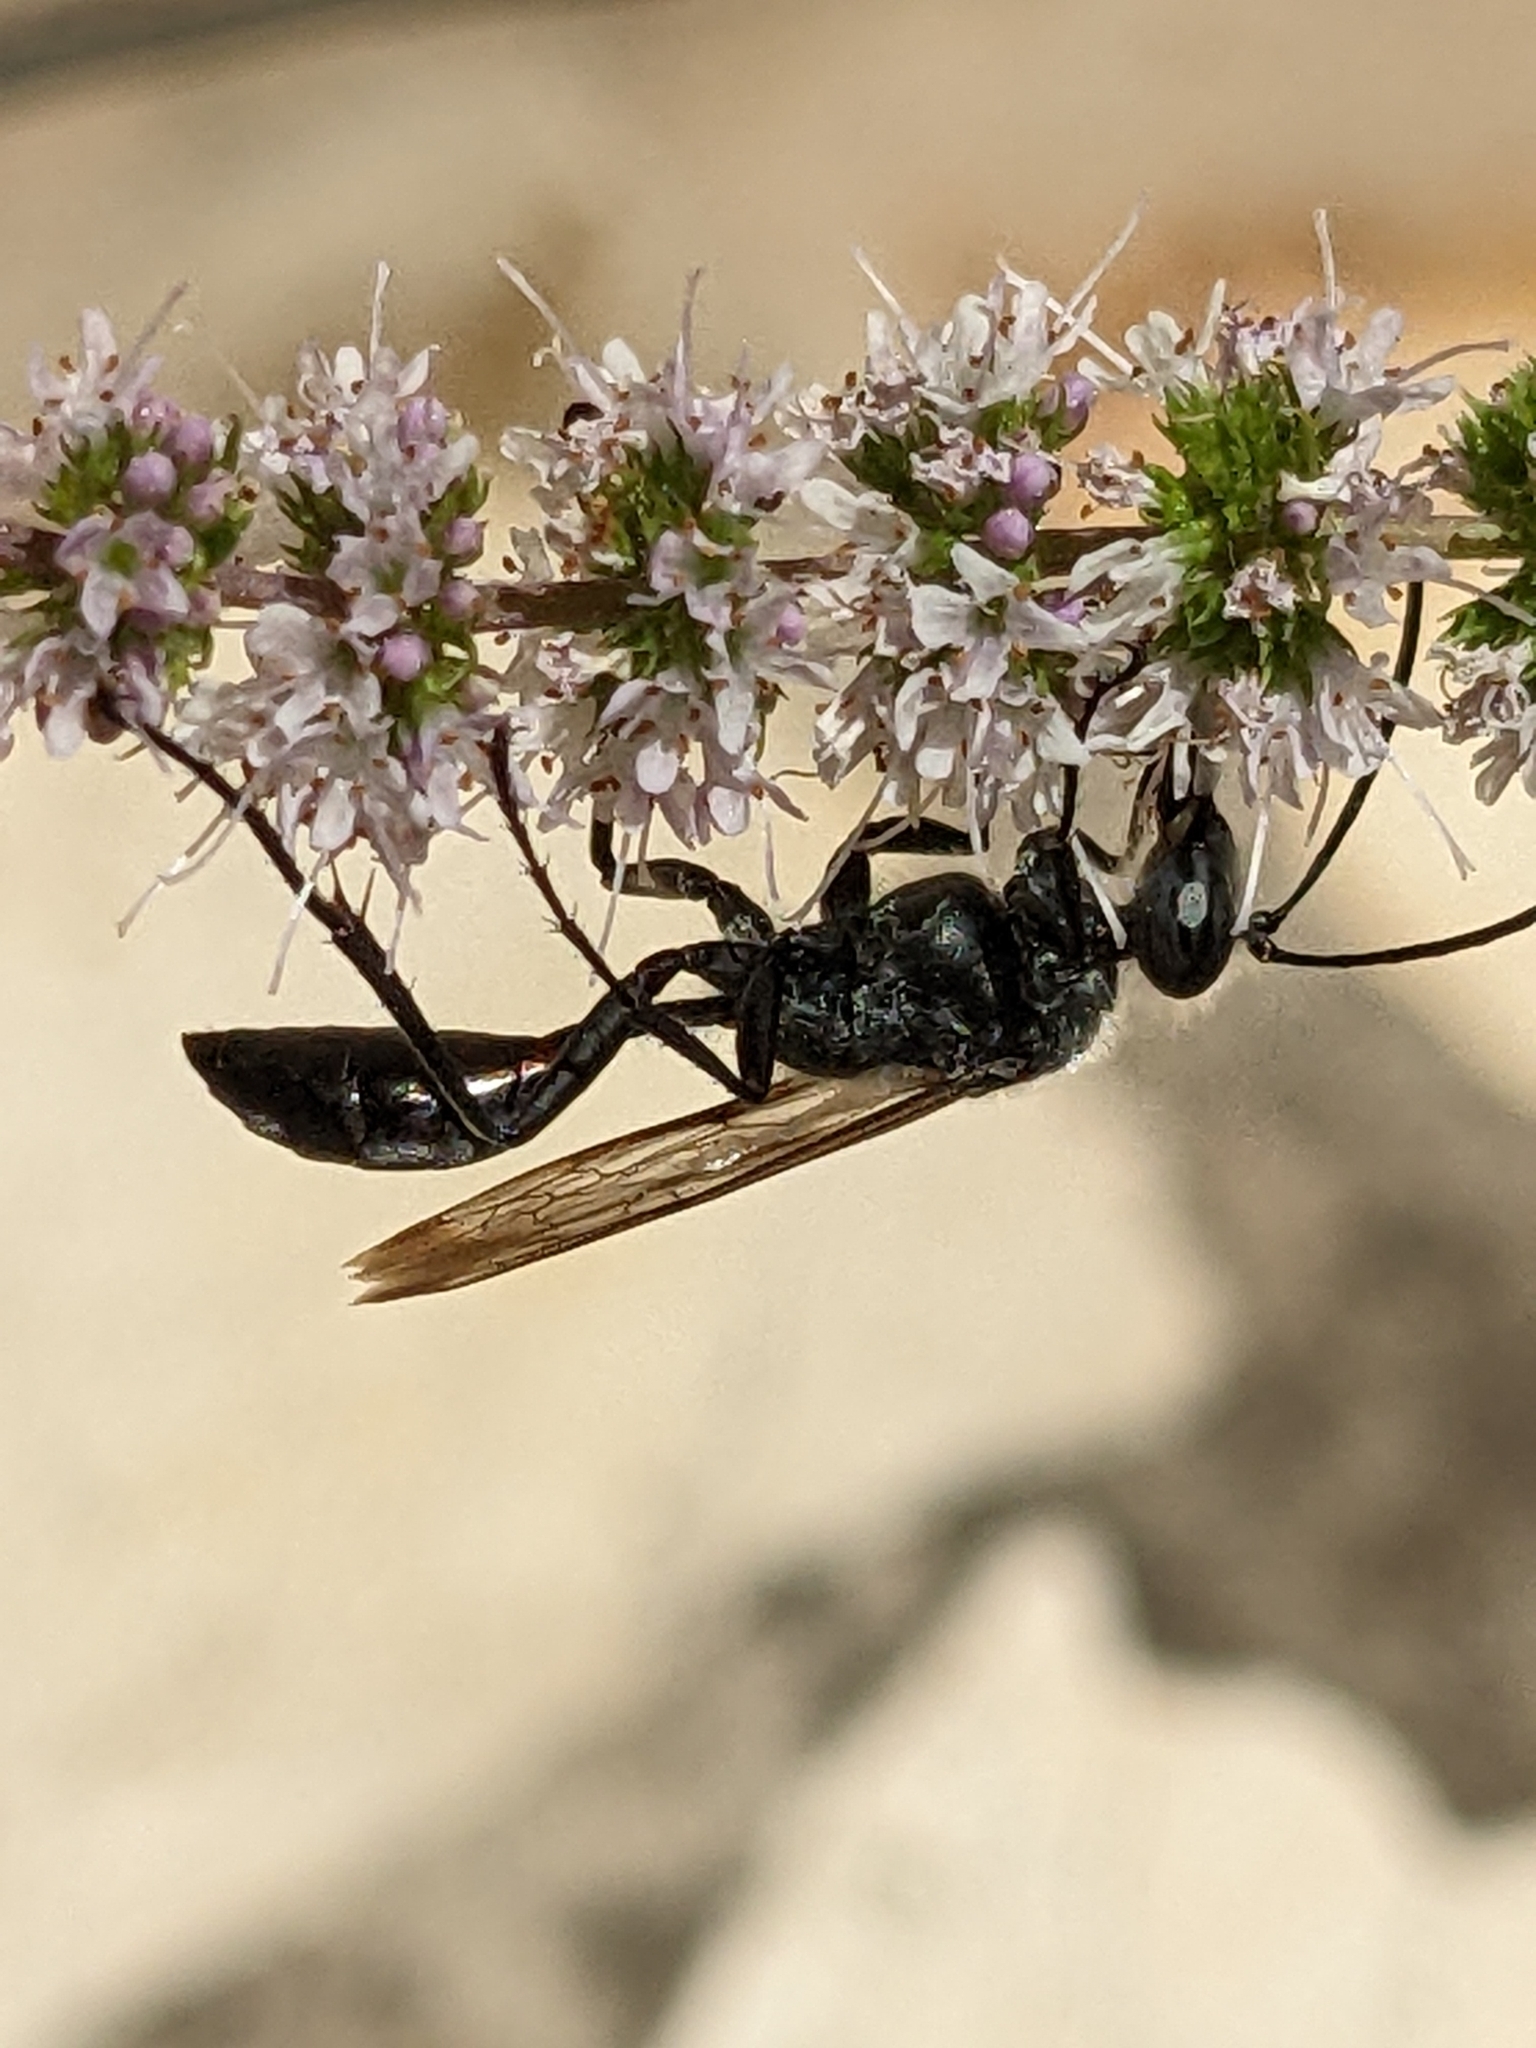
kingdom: Animalia
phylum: Arthropoda
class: Insecta
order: Hymenoptera
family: Sphecidae
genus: Sphex
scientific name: Sphex pruinosus
